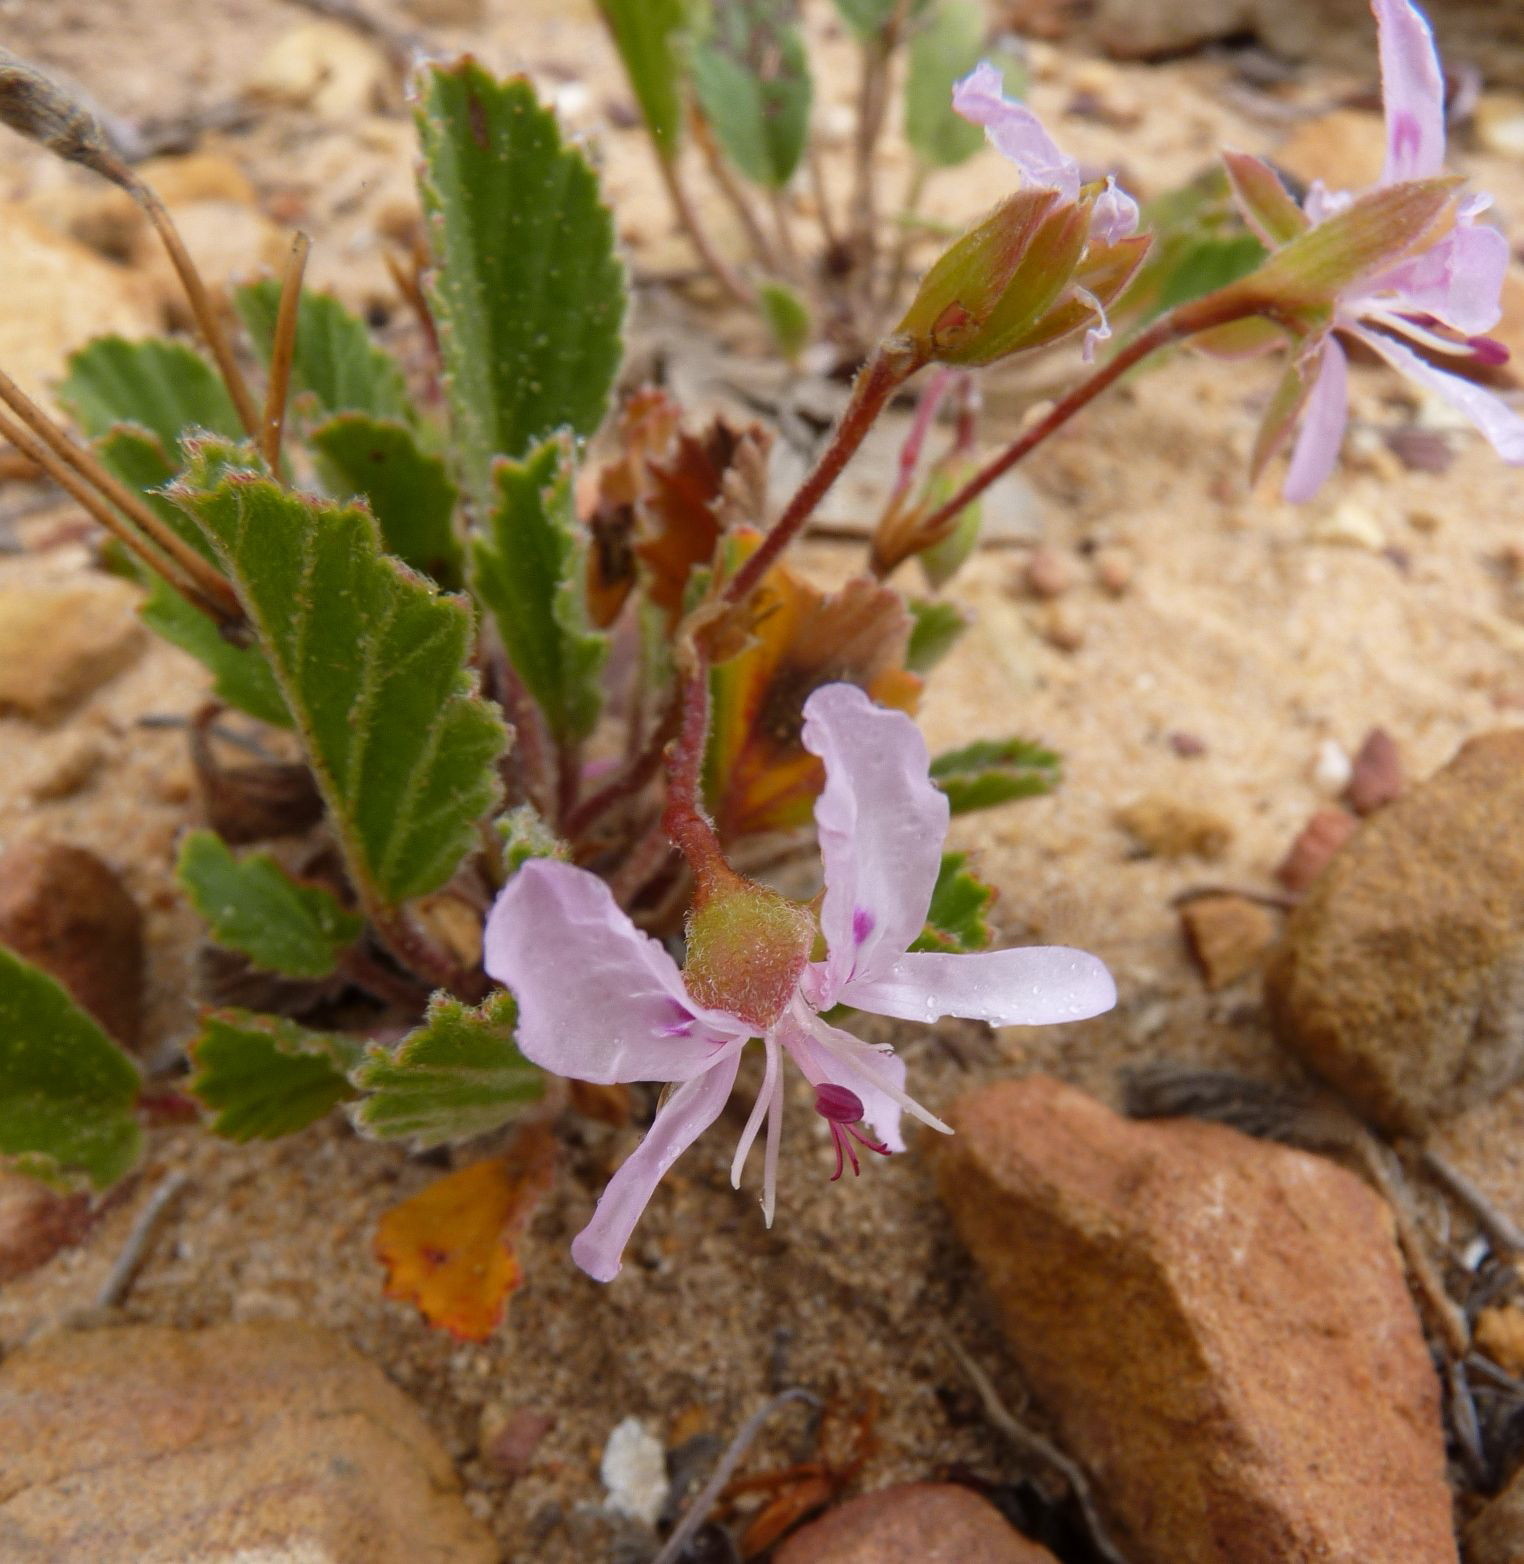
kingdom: Plantae
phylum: Tracheophyta
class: Magnoliopsida
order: Geraniales
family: Geraniaceae
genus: Pelargonium
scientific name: Pelargonium ovale
